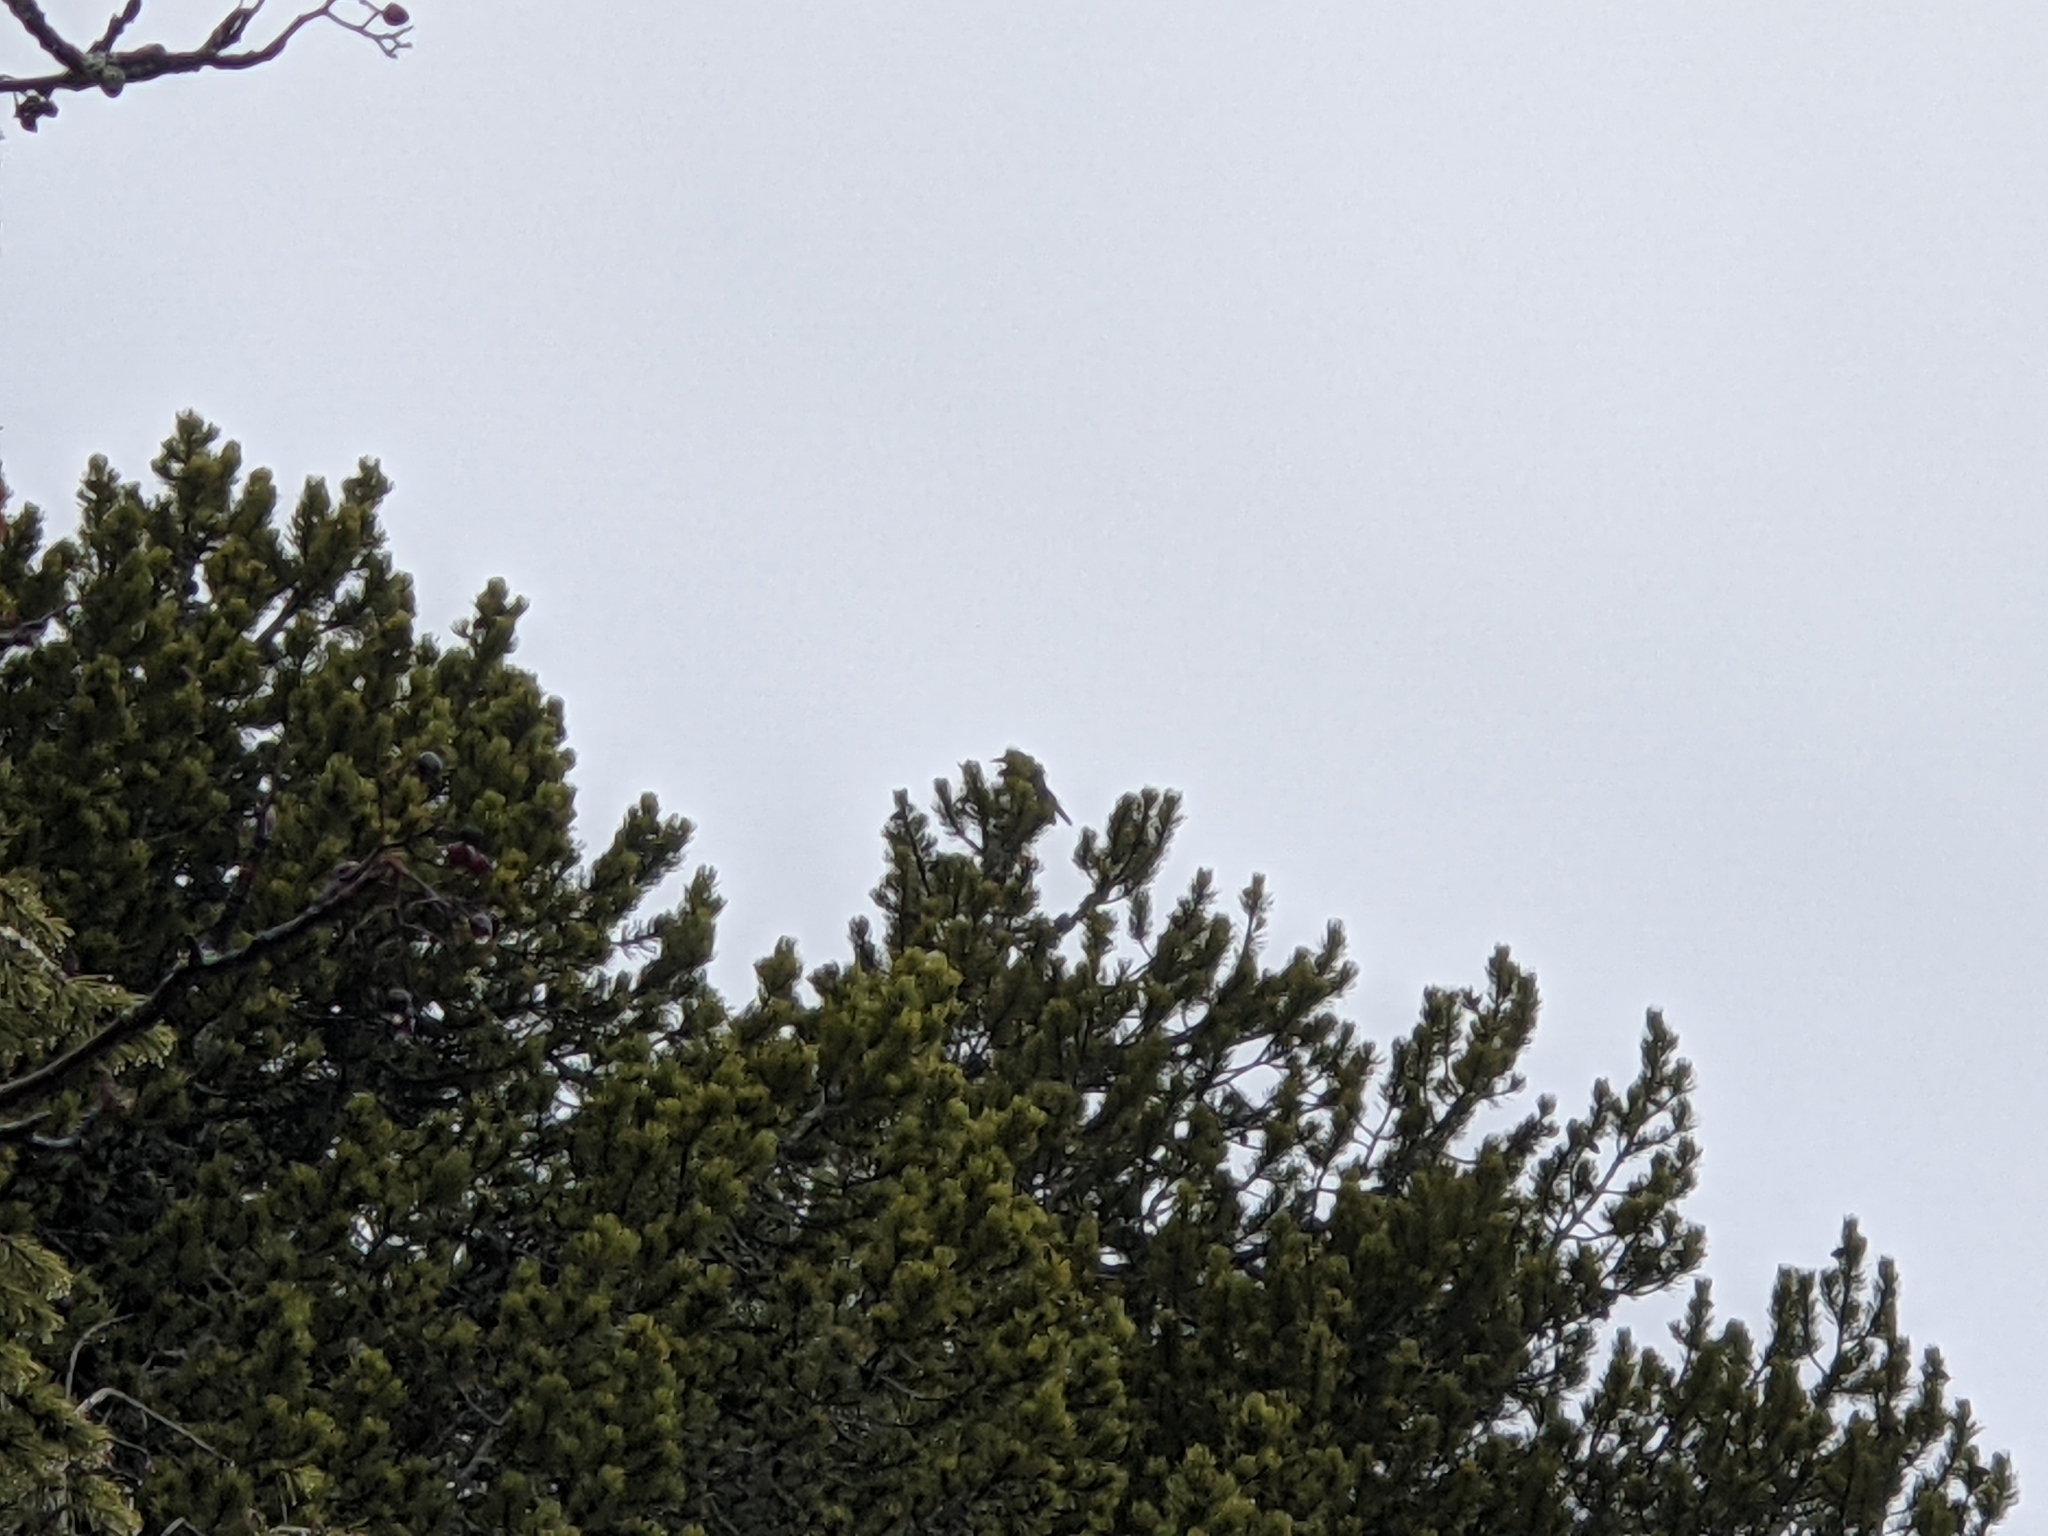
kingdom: Animalia
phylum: Chordata
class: Aves
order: Passeriformes
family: Corvidae
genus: Nucifraga
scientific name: Nucifraga caryocatactes
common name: Spotted nutcracker
